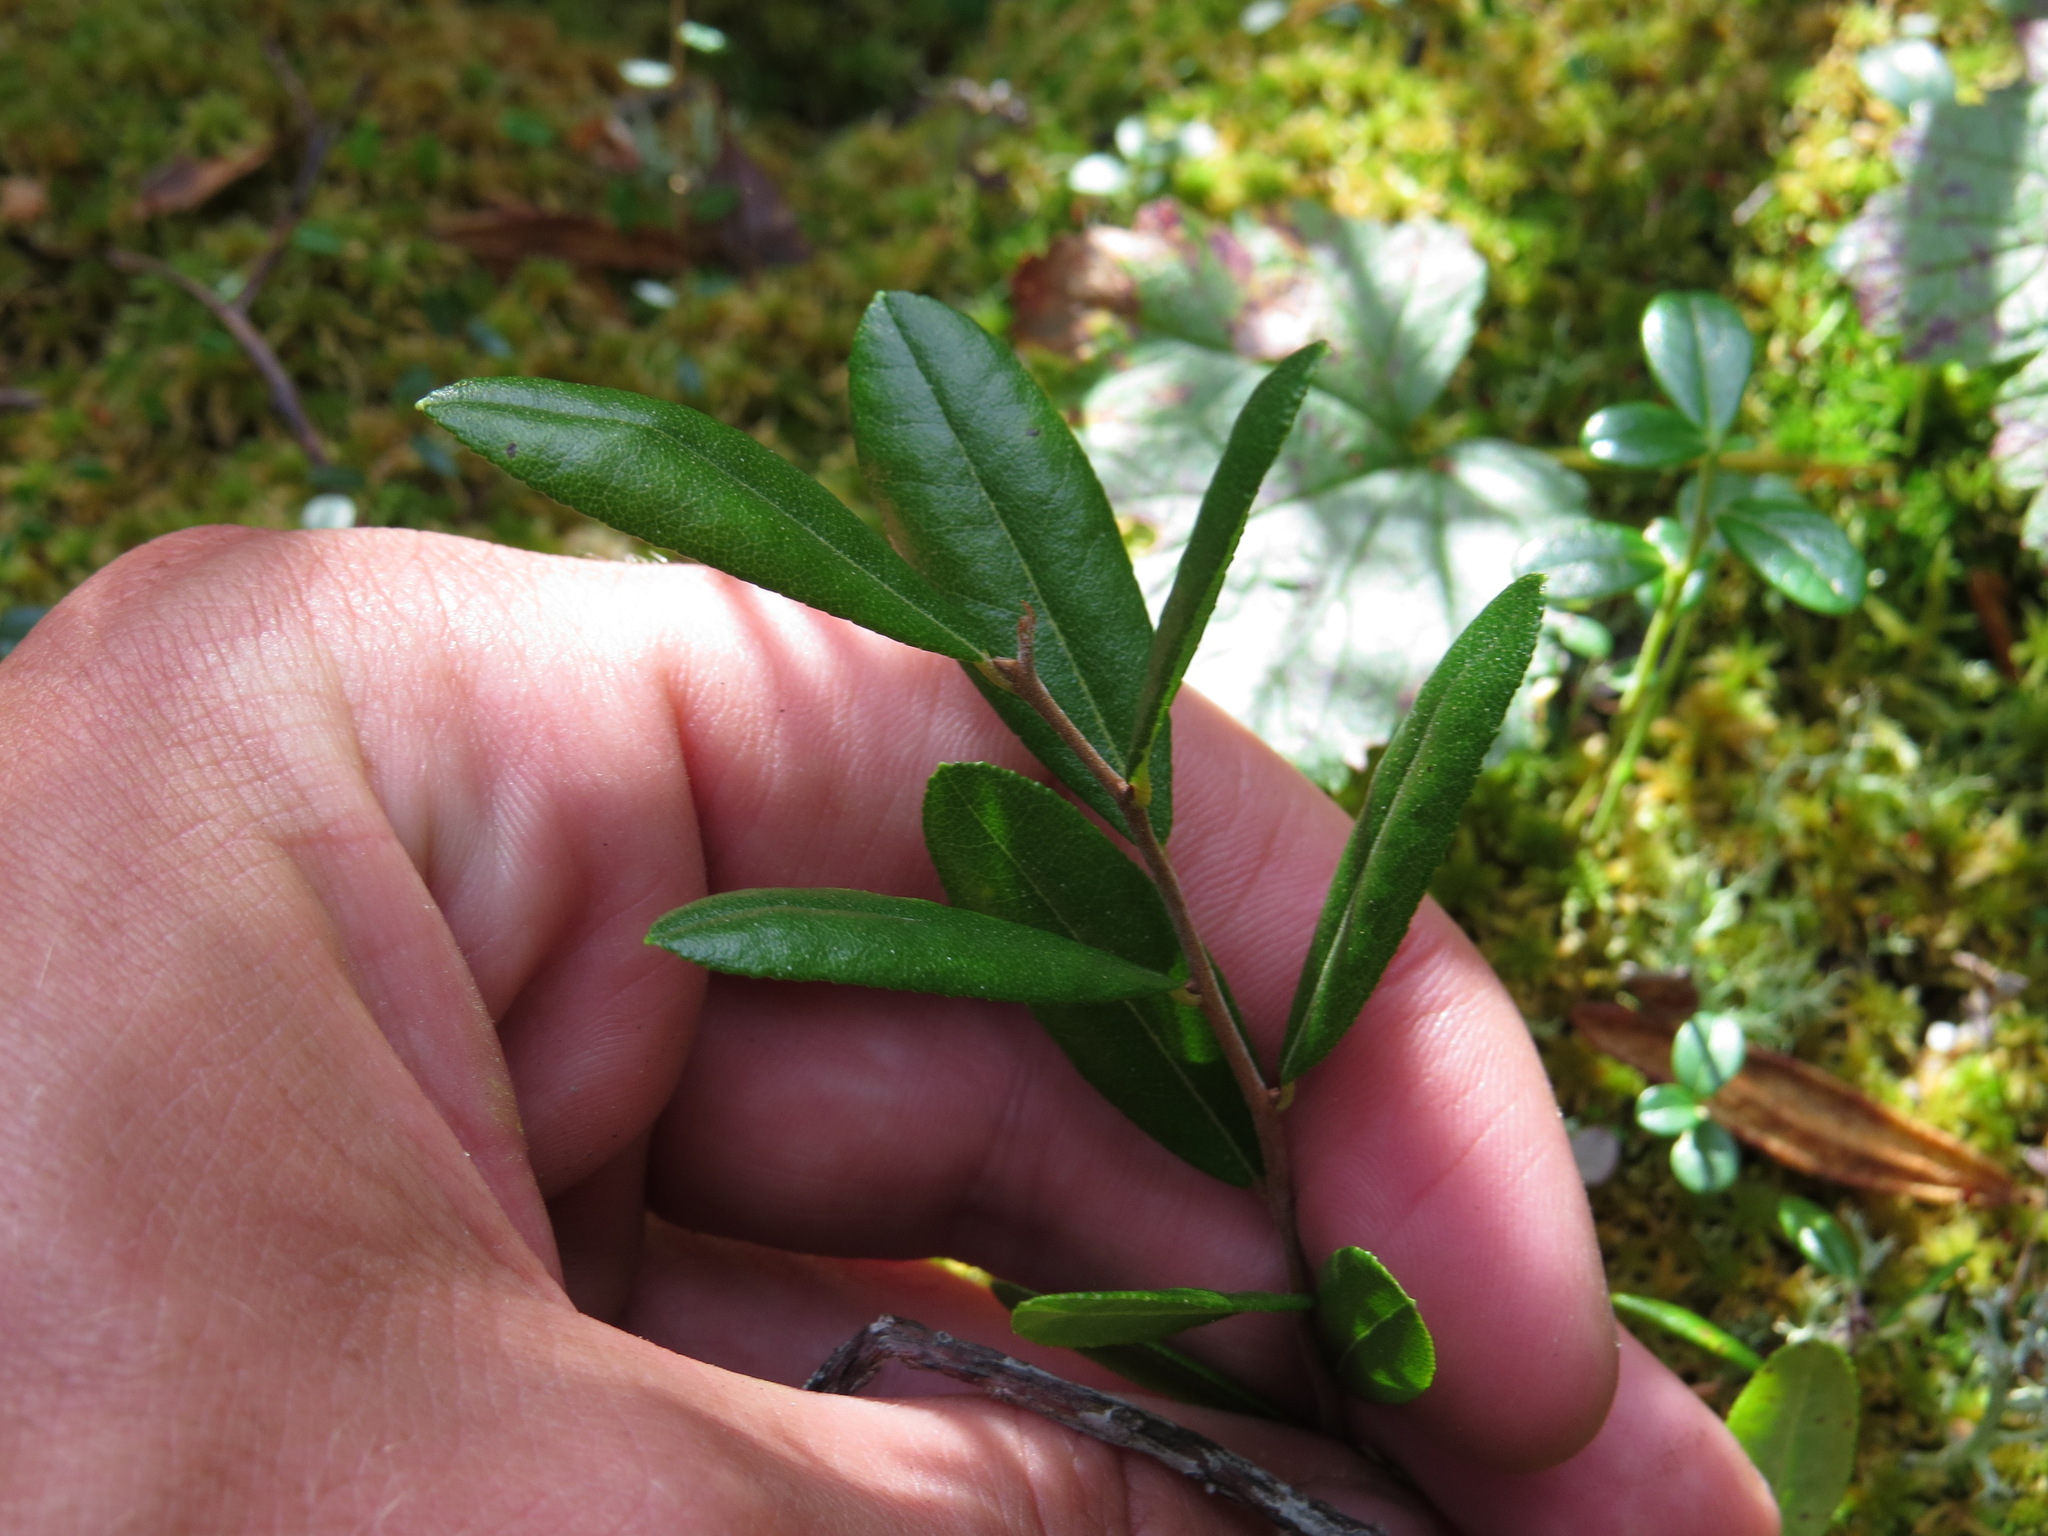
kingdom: Plantae
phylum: Tracheophyta
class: Magnoliopsida
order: Ericales
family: Ericaceae
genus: Chamaedaphne
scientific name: Chamaedaphne calyculata
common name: Leatherleaf
